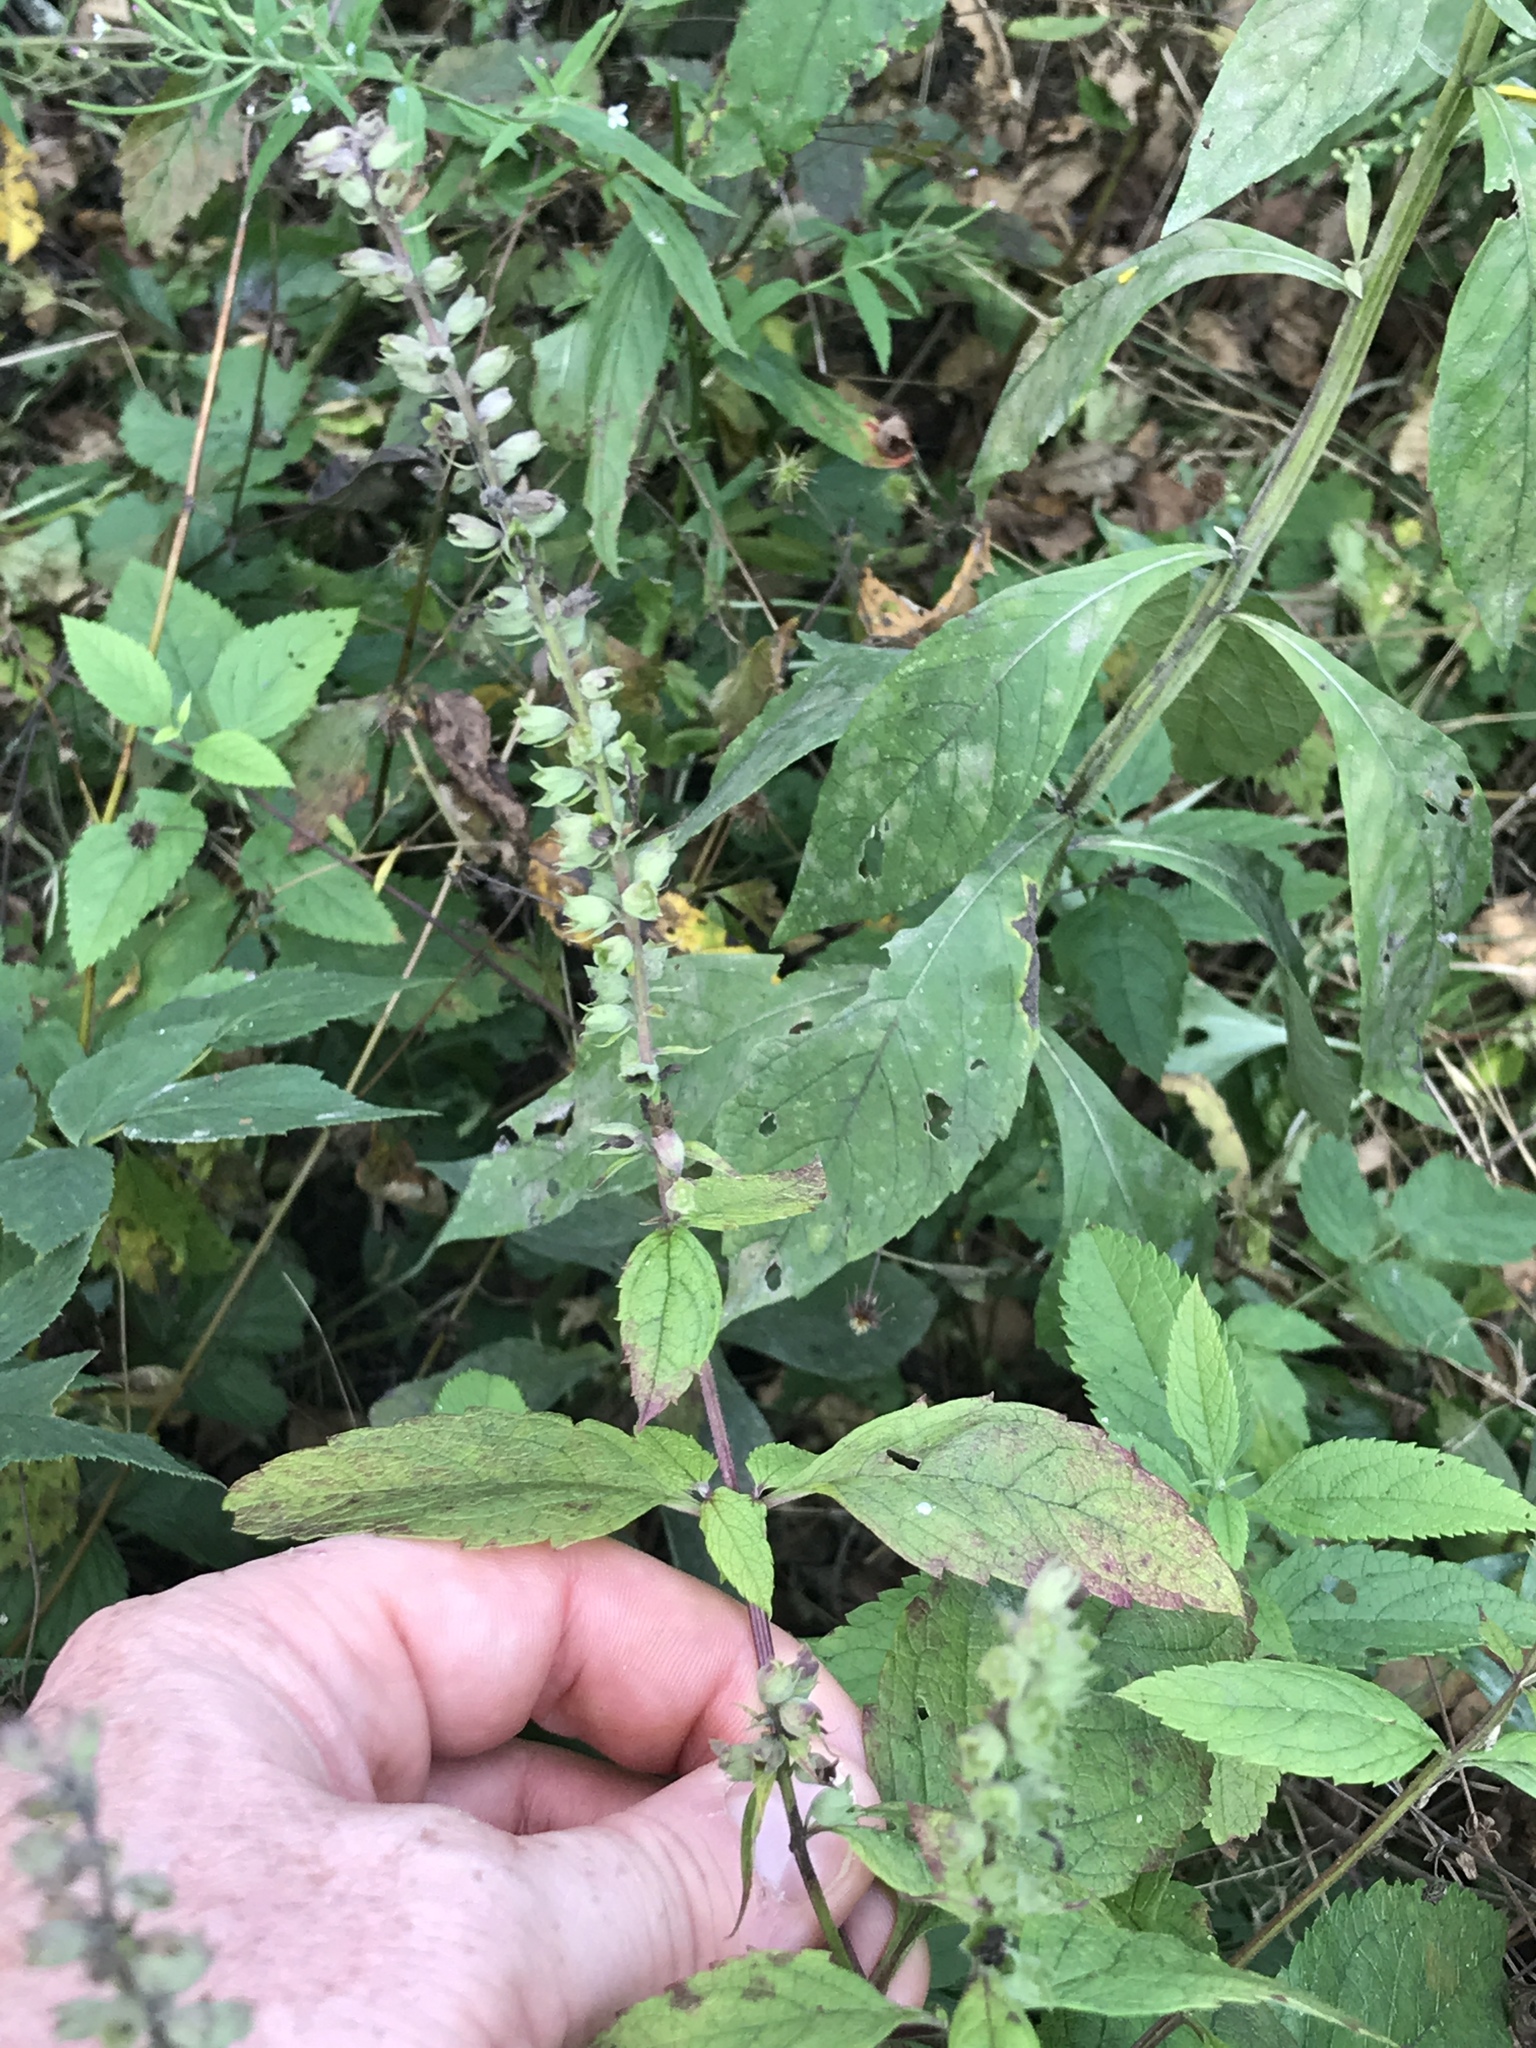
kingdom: Plantae
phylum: Tracheophyta
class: Magnoliopsida
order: Lamiales
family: Lamiaceae
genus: Teucrium
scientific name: Teucrium canadense
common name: American germander
